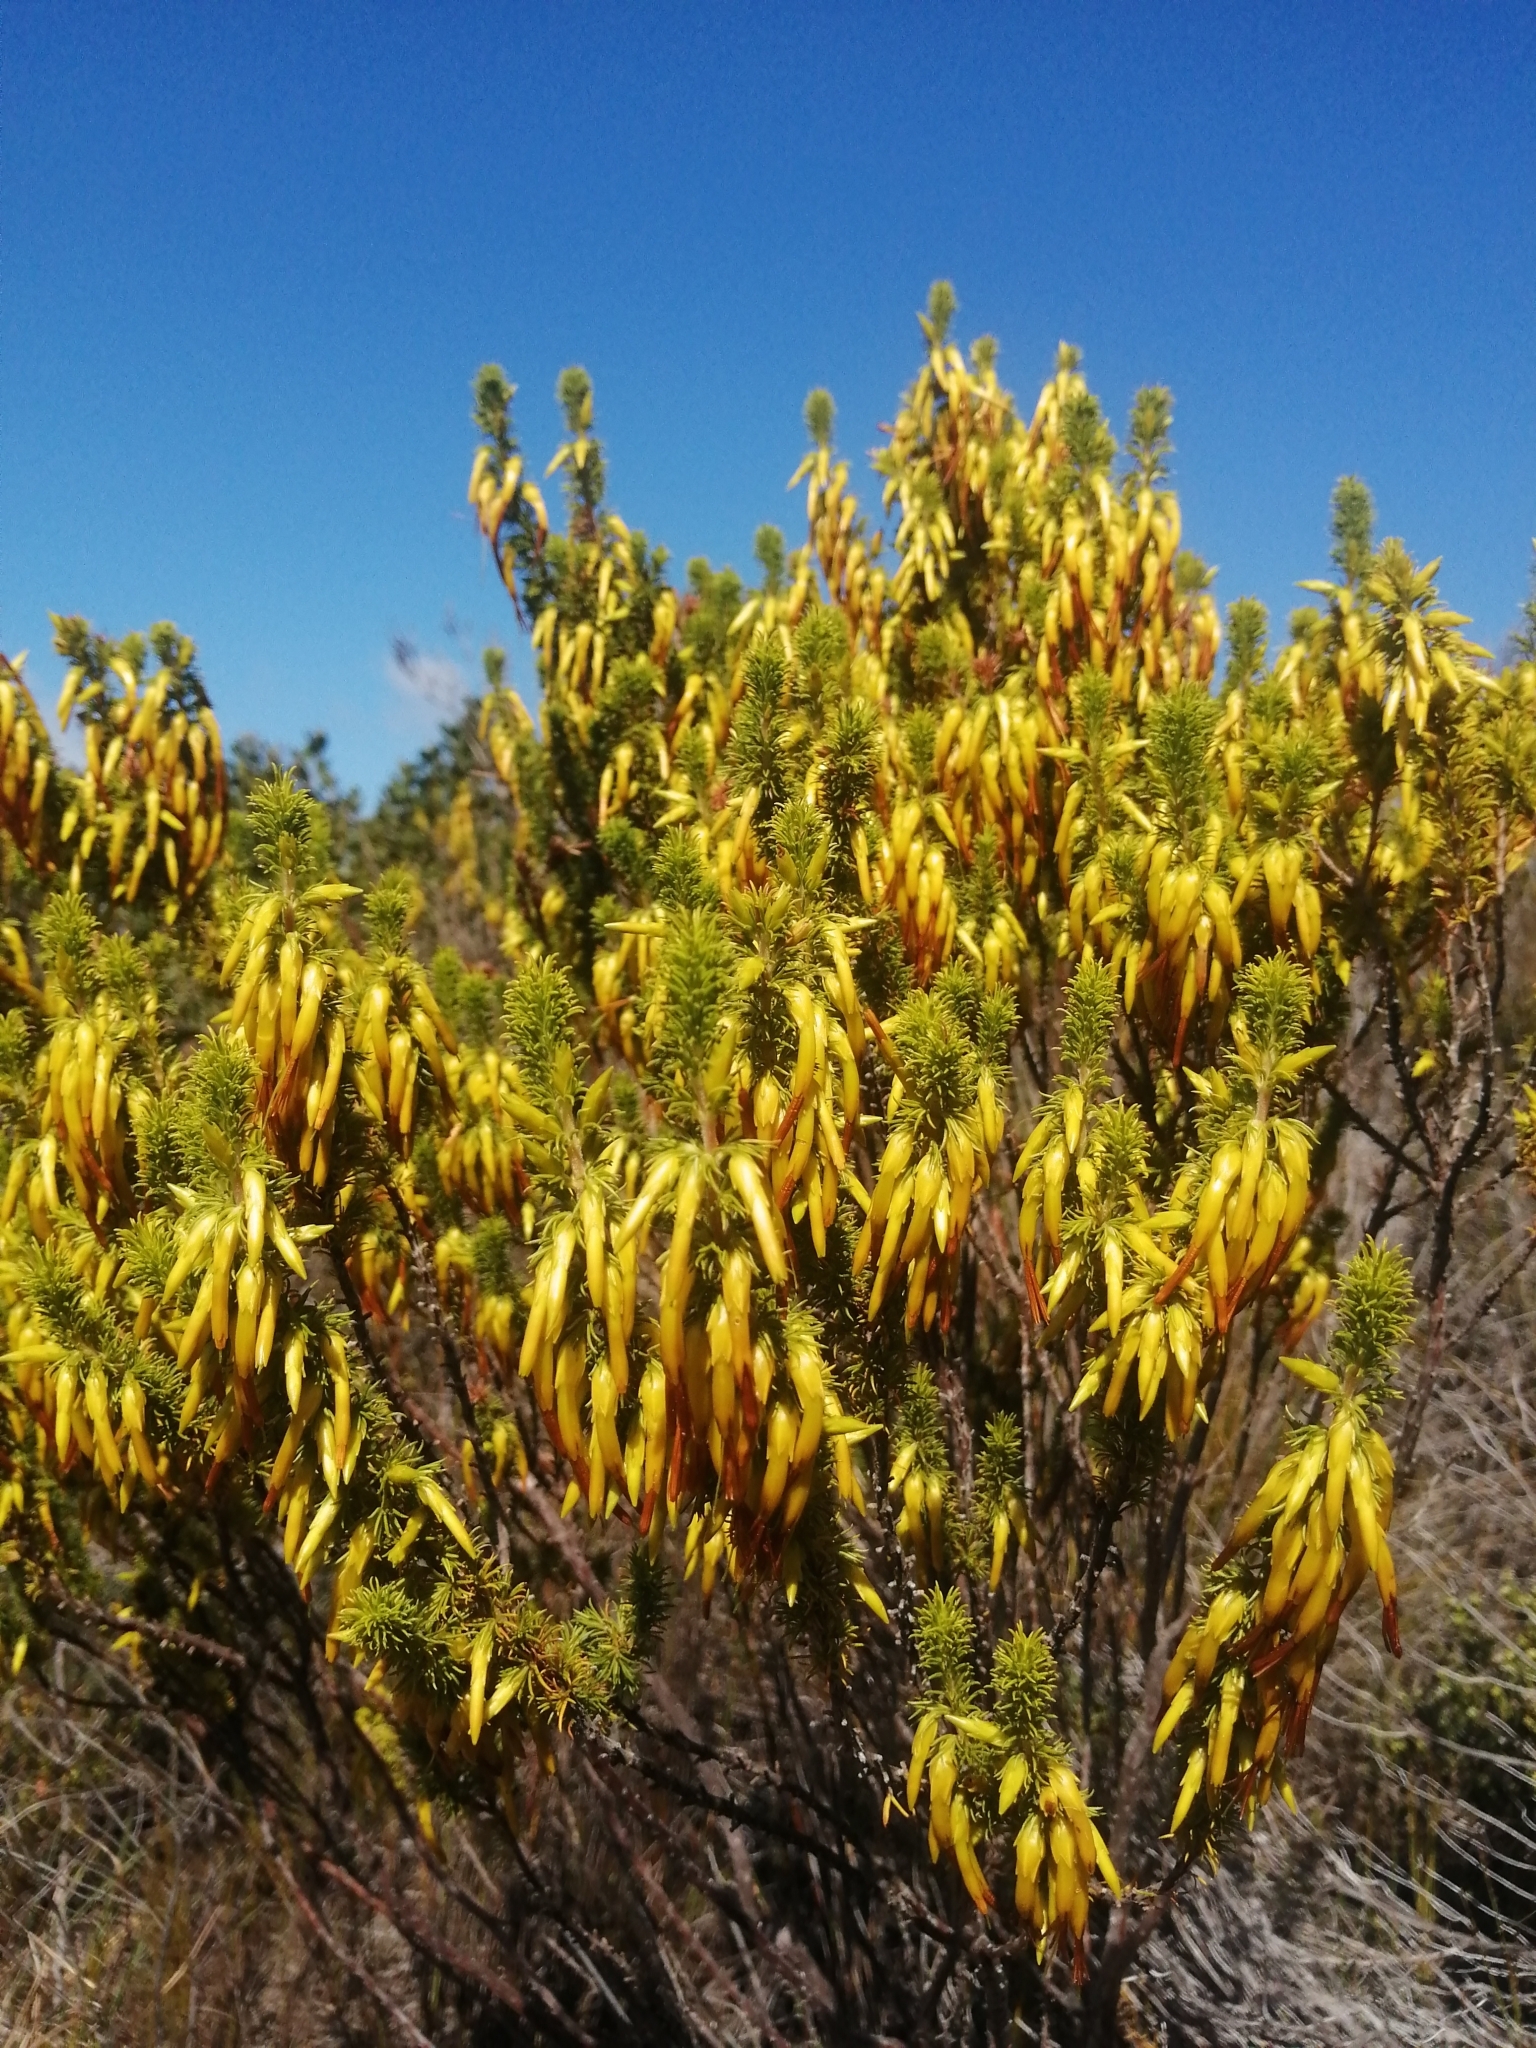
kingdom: Plantae
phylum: Tracheophyta
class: Magnoliopsida
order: Ericales
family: Ericaceae
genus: Erica
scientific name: Erica coccinea
